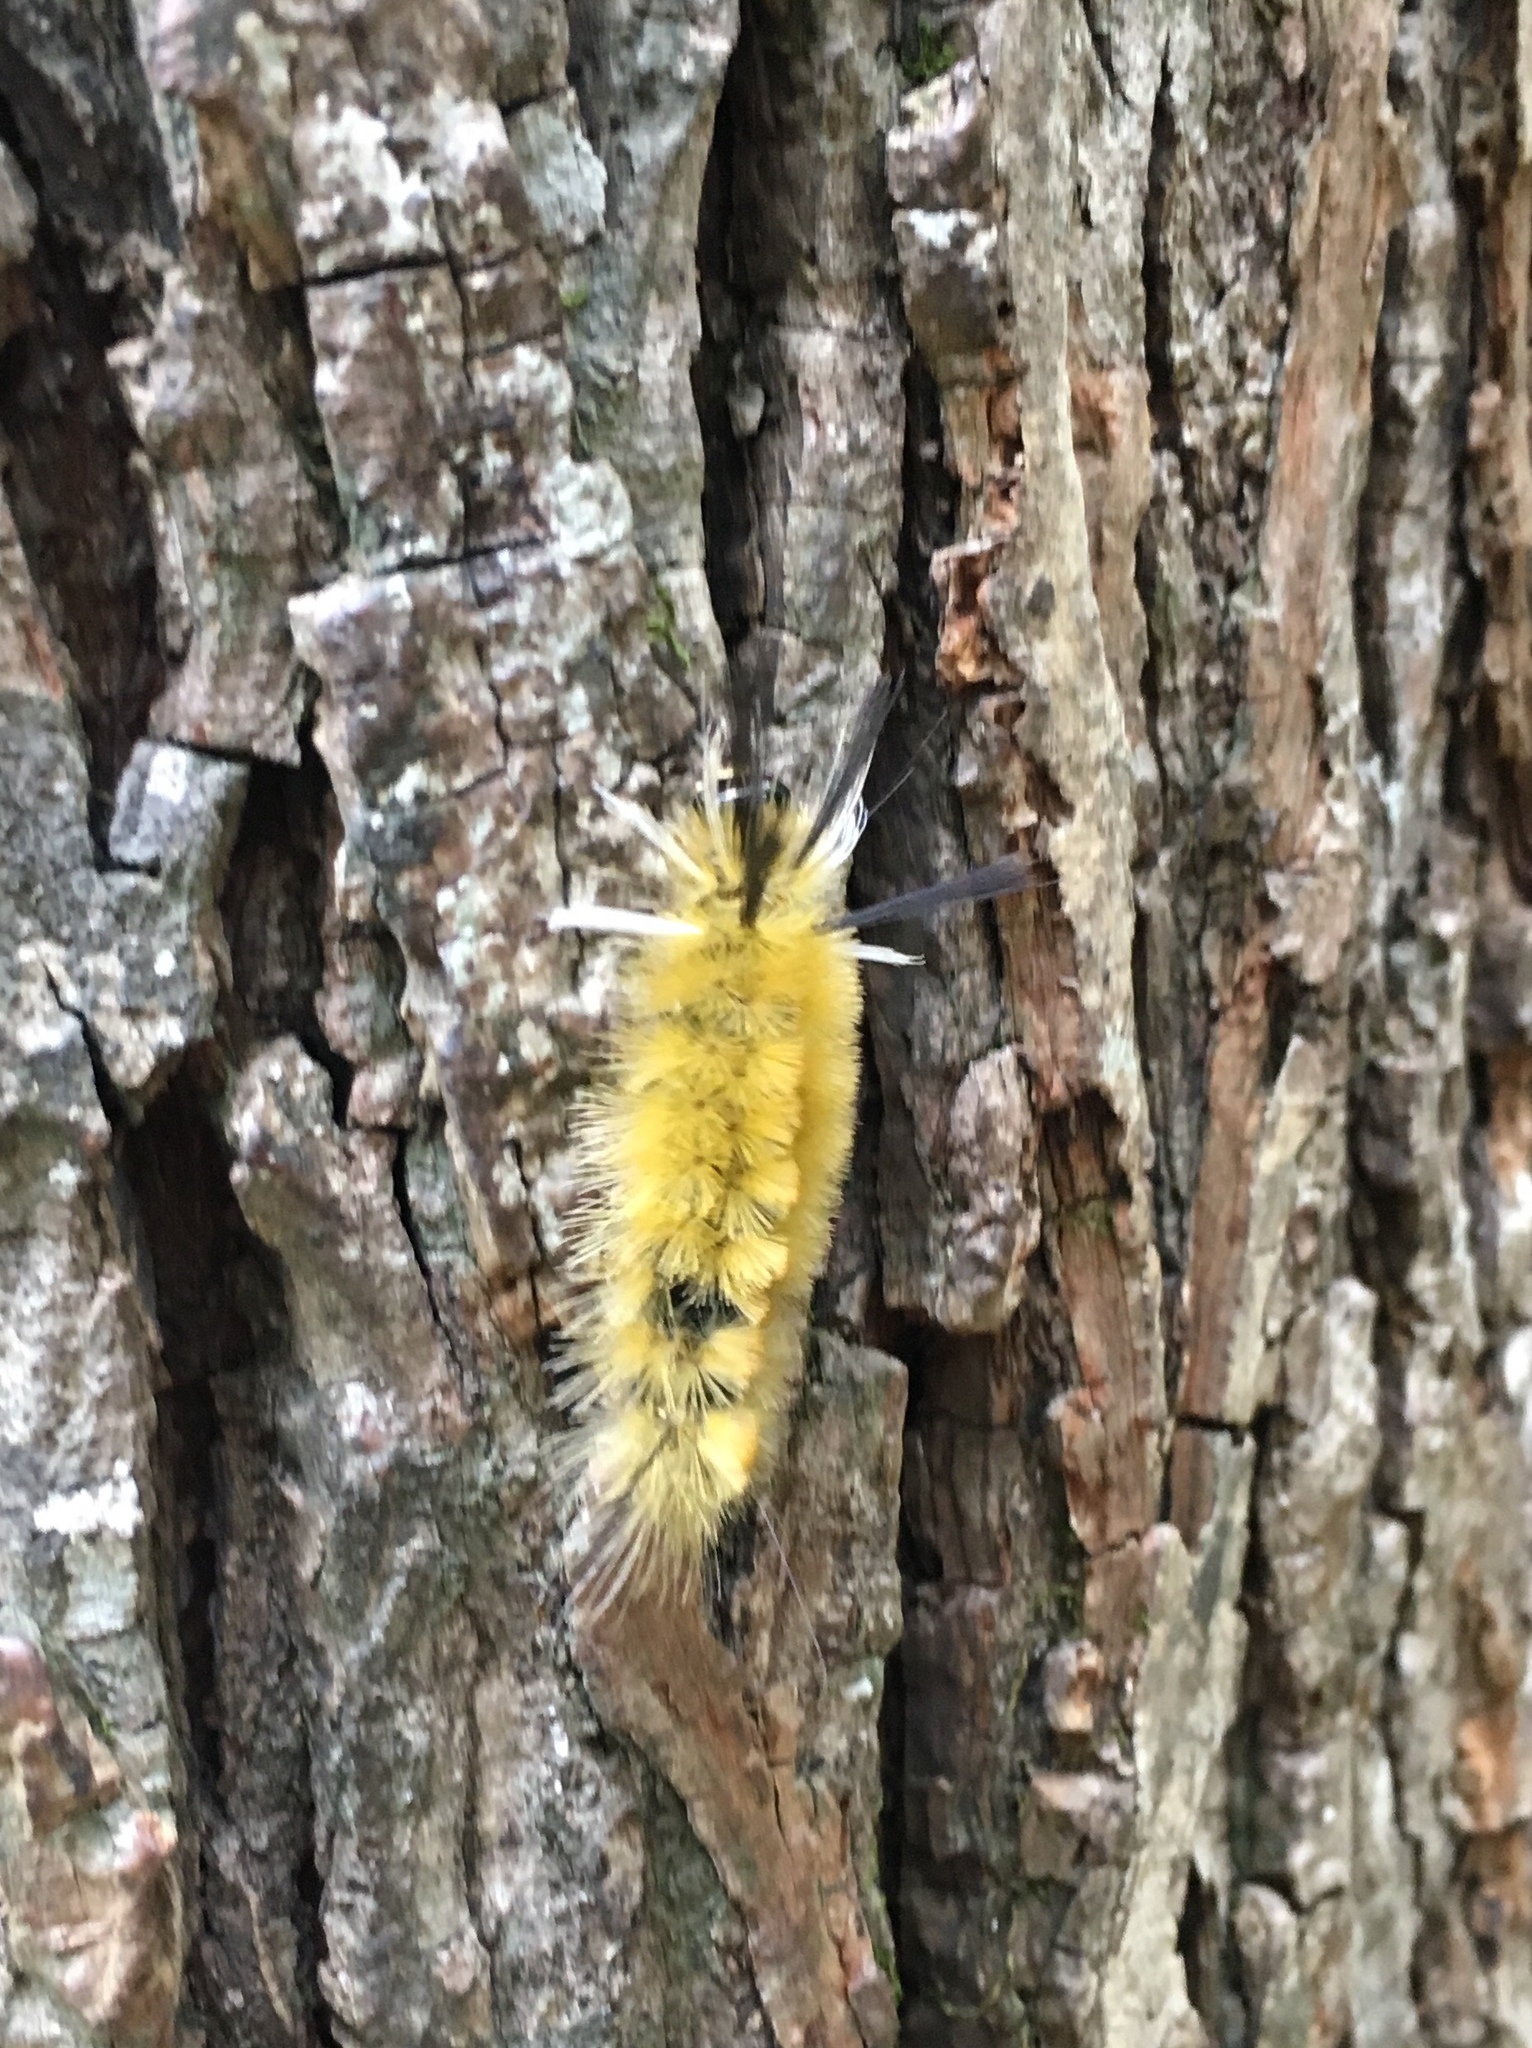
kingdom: Animalia
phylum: Arthropoda
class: Insecta
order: Lepidoptera
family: Erebidae
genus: Halysidota
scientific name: Halysidota tessellaris
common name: Banded tussock moth
